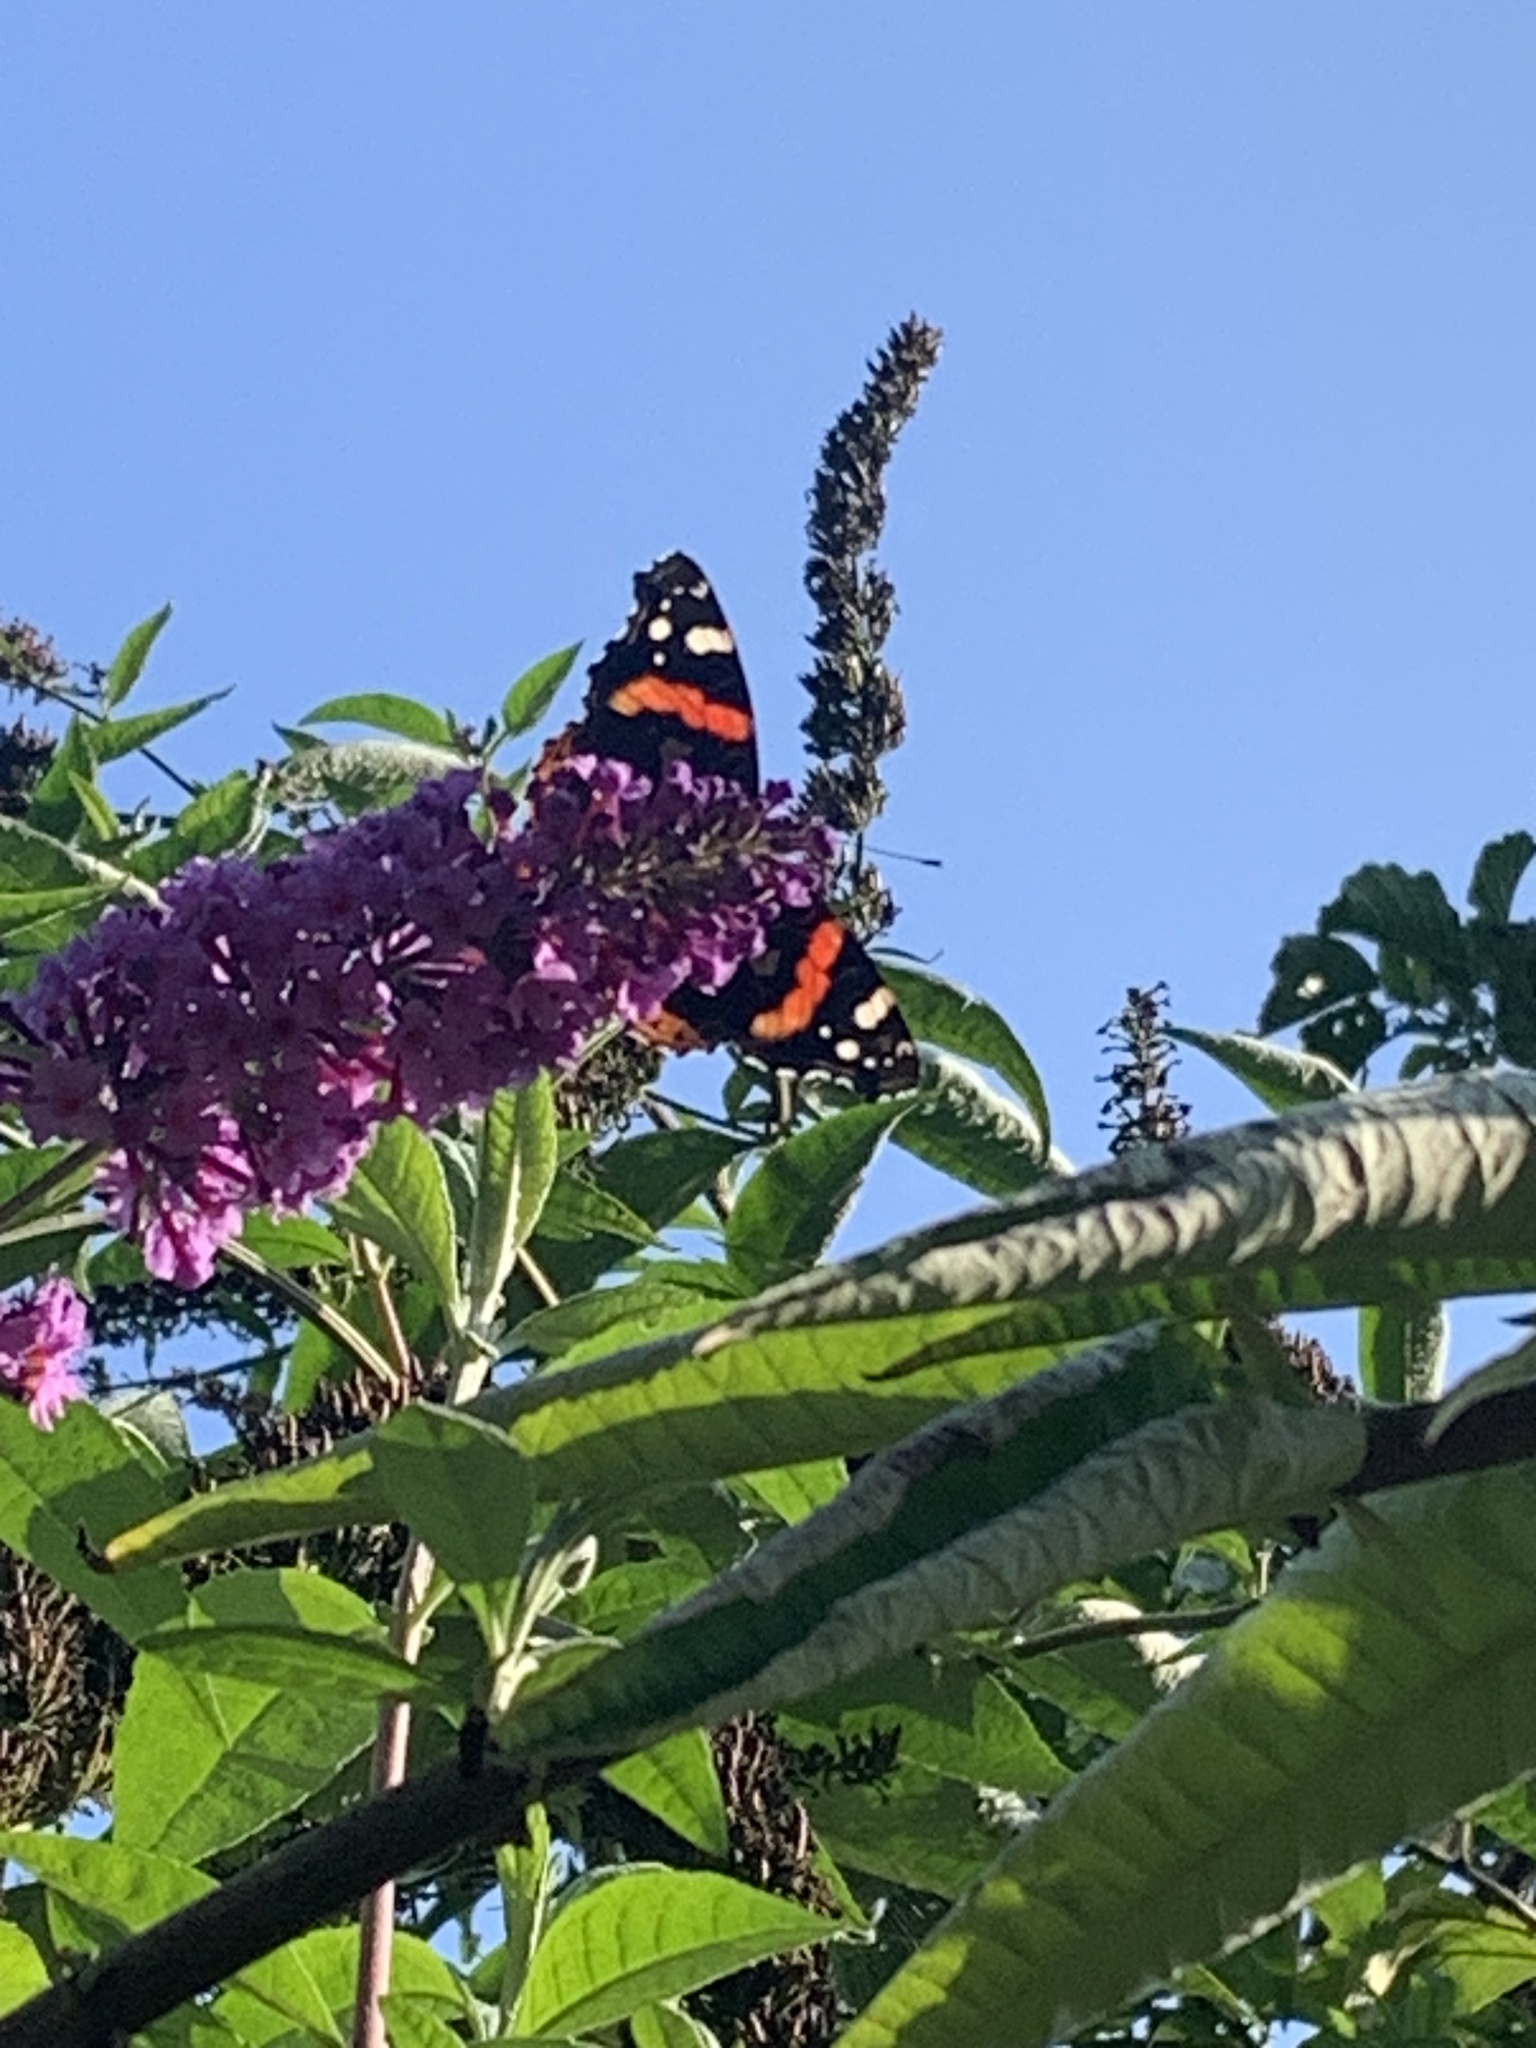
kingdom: Animalia
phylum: Arthropoda
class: Insecta
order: Lepidoptera
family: Nymphalidae
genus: Vanessa
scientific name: Vanessa atalanta
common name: Red admiral
